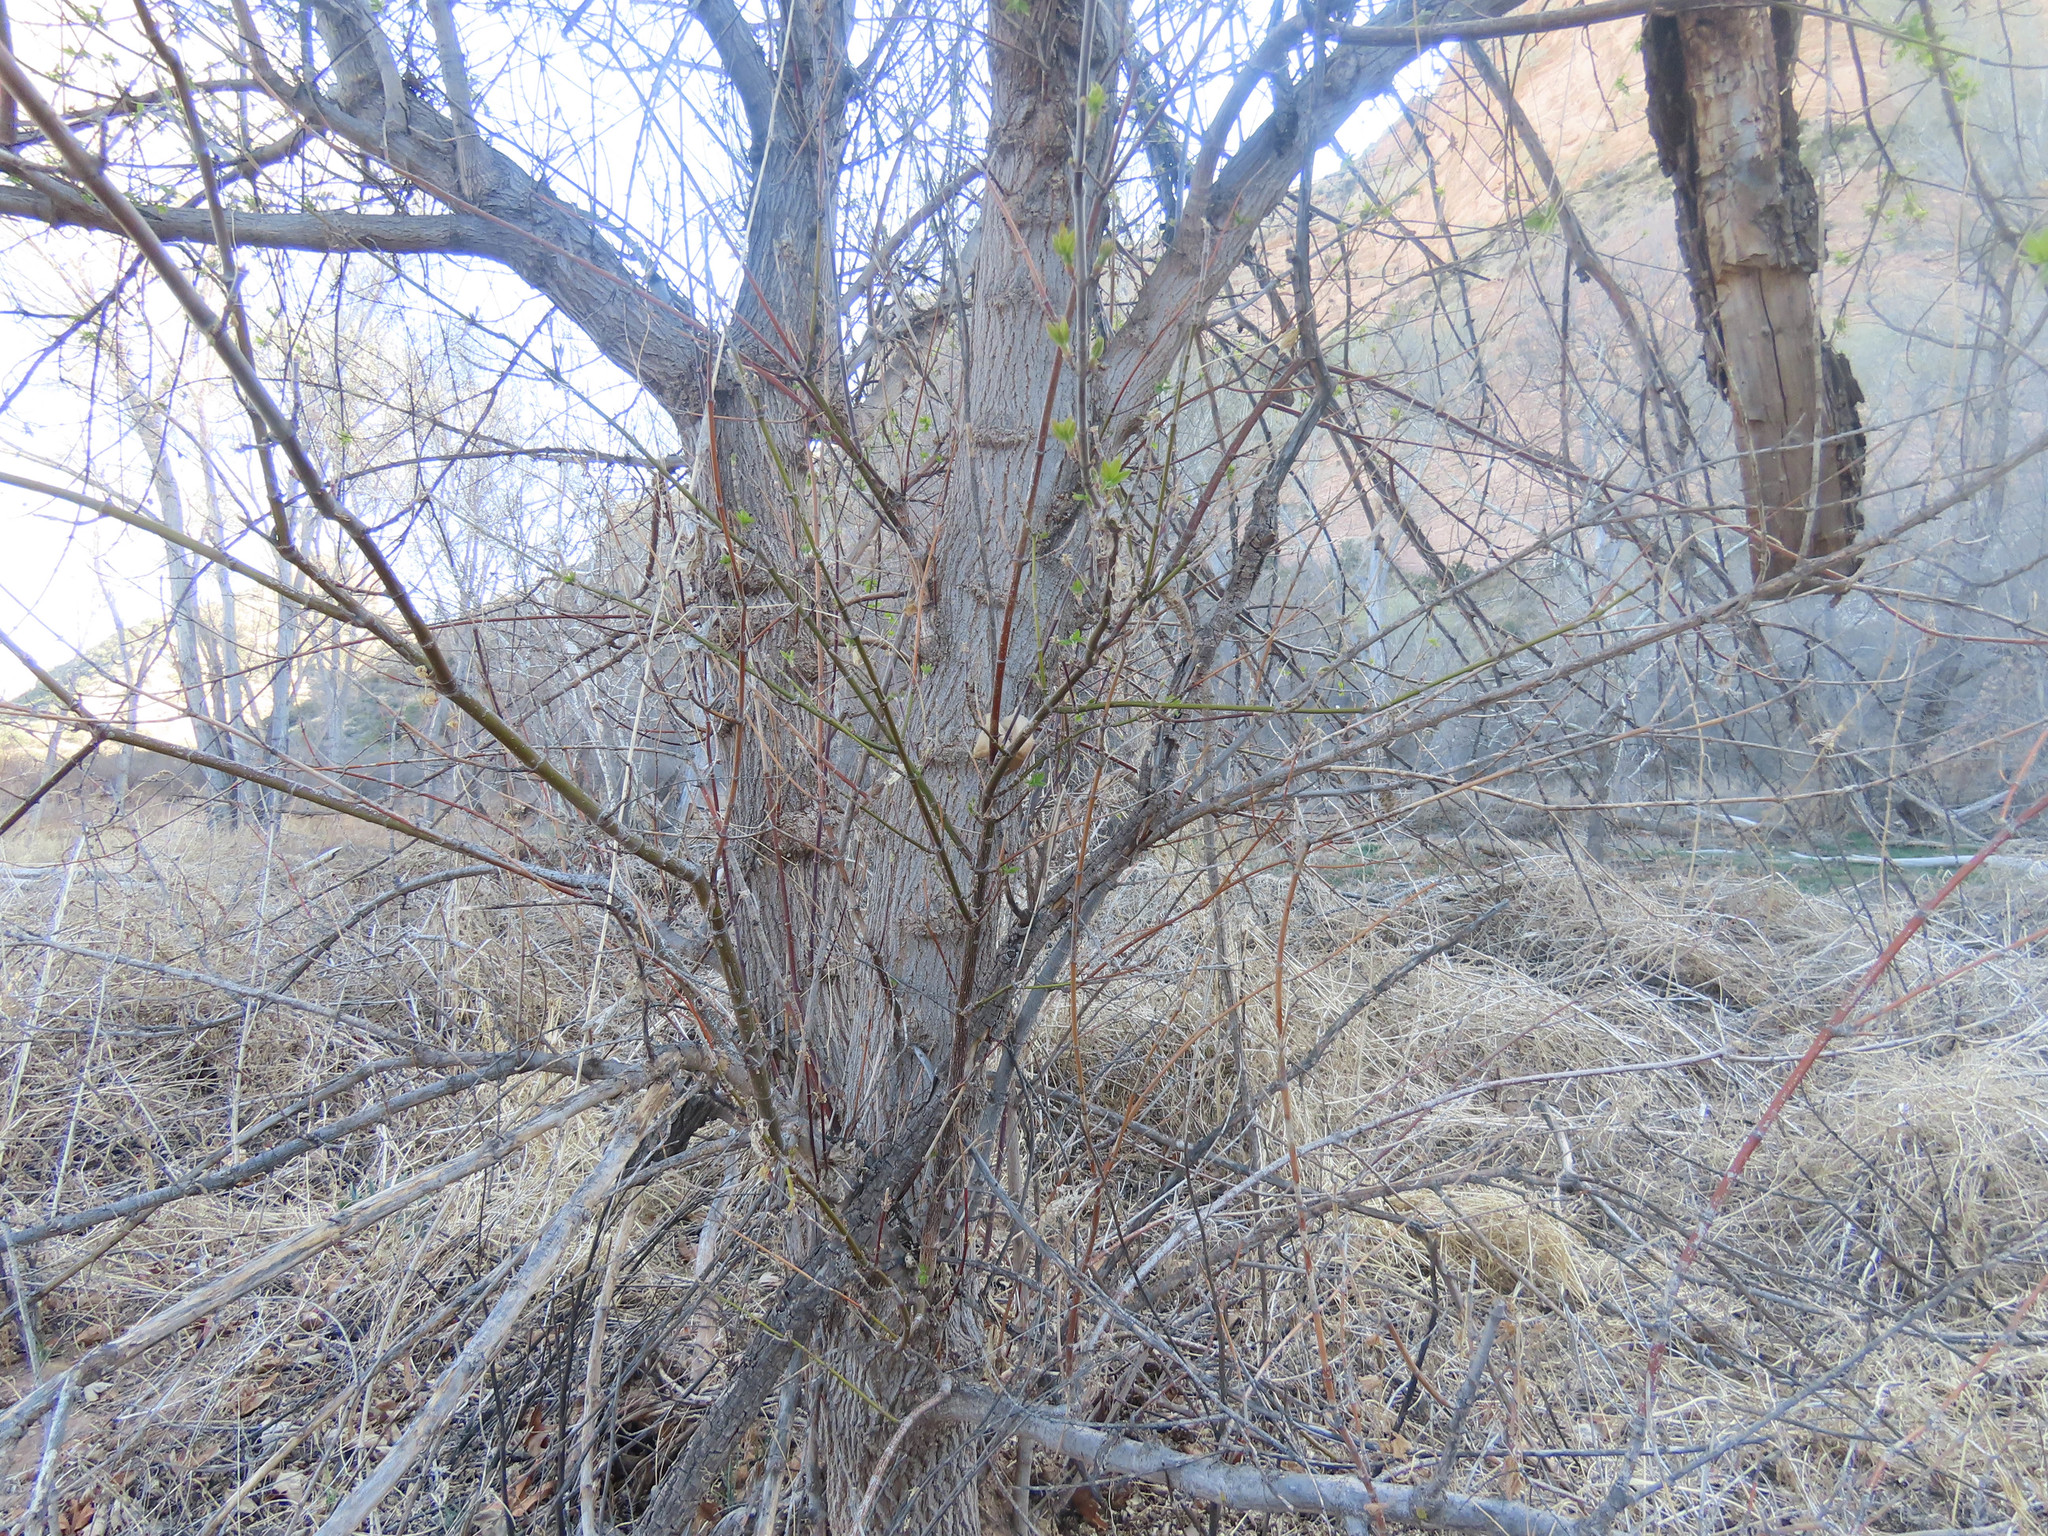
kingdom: Plantae
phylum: Tracheophyta
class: Magnoliopsida
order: Sapindales
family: Sapindaceae
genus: Acer
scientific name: Acer negundo
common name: Ashleaf maple
